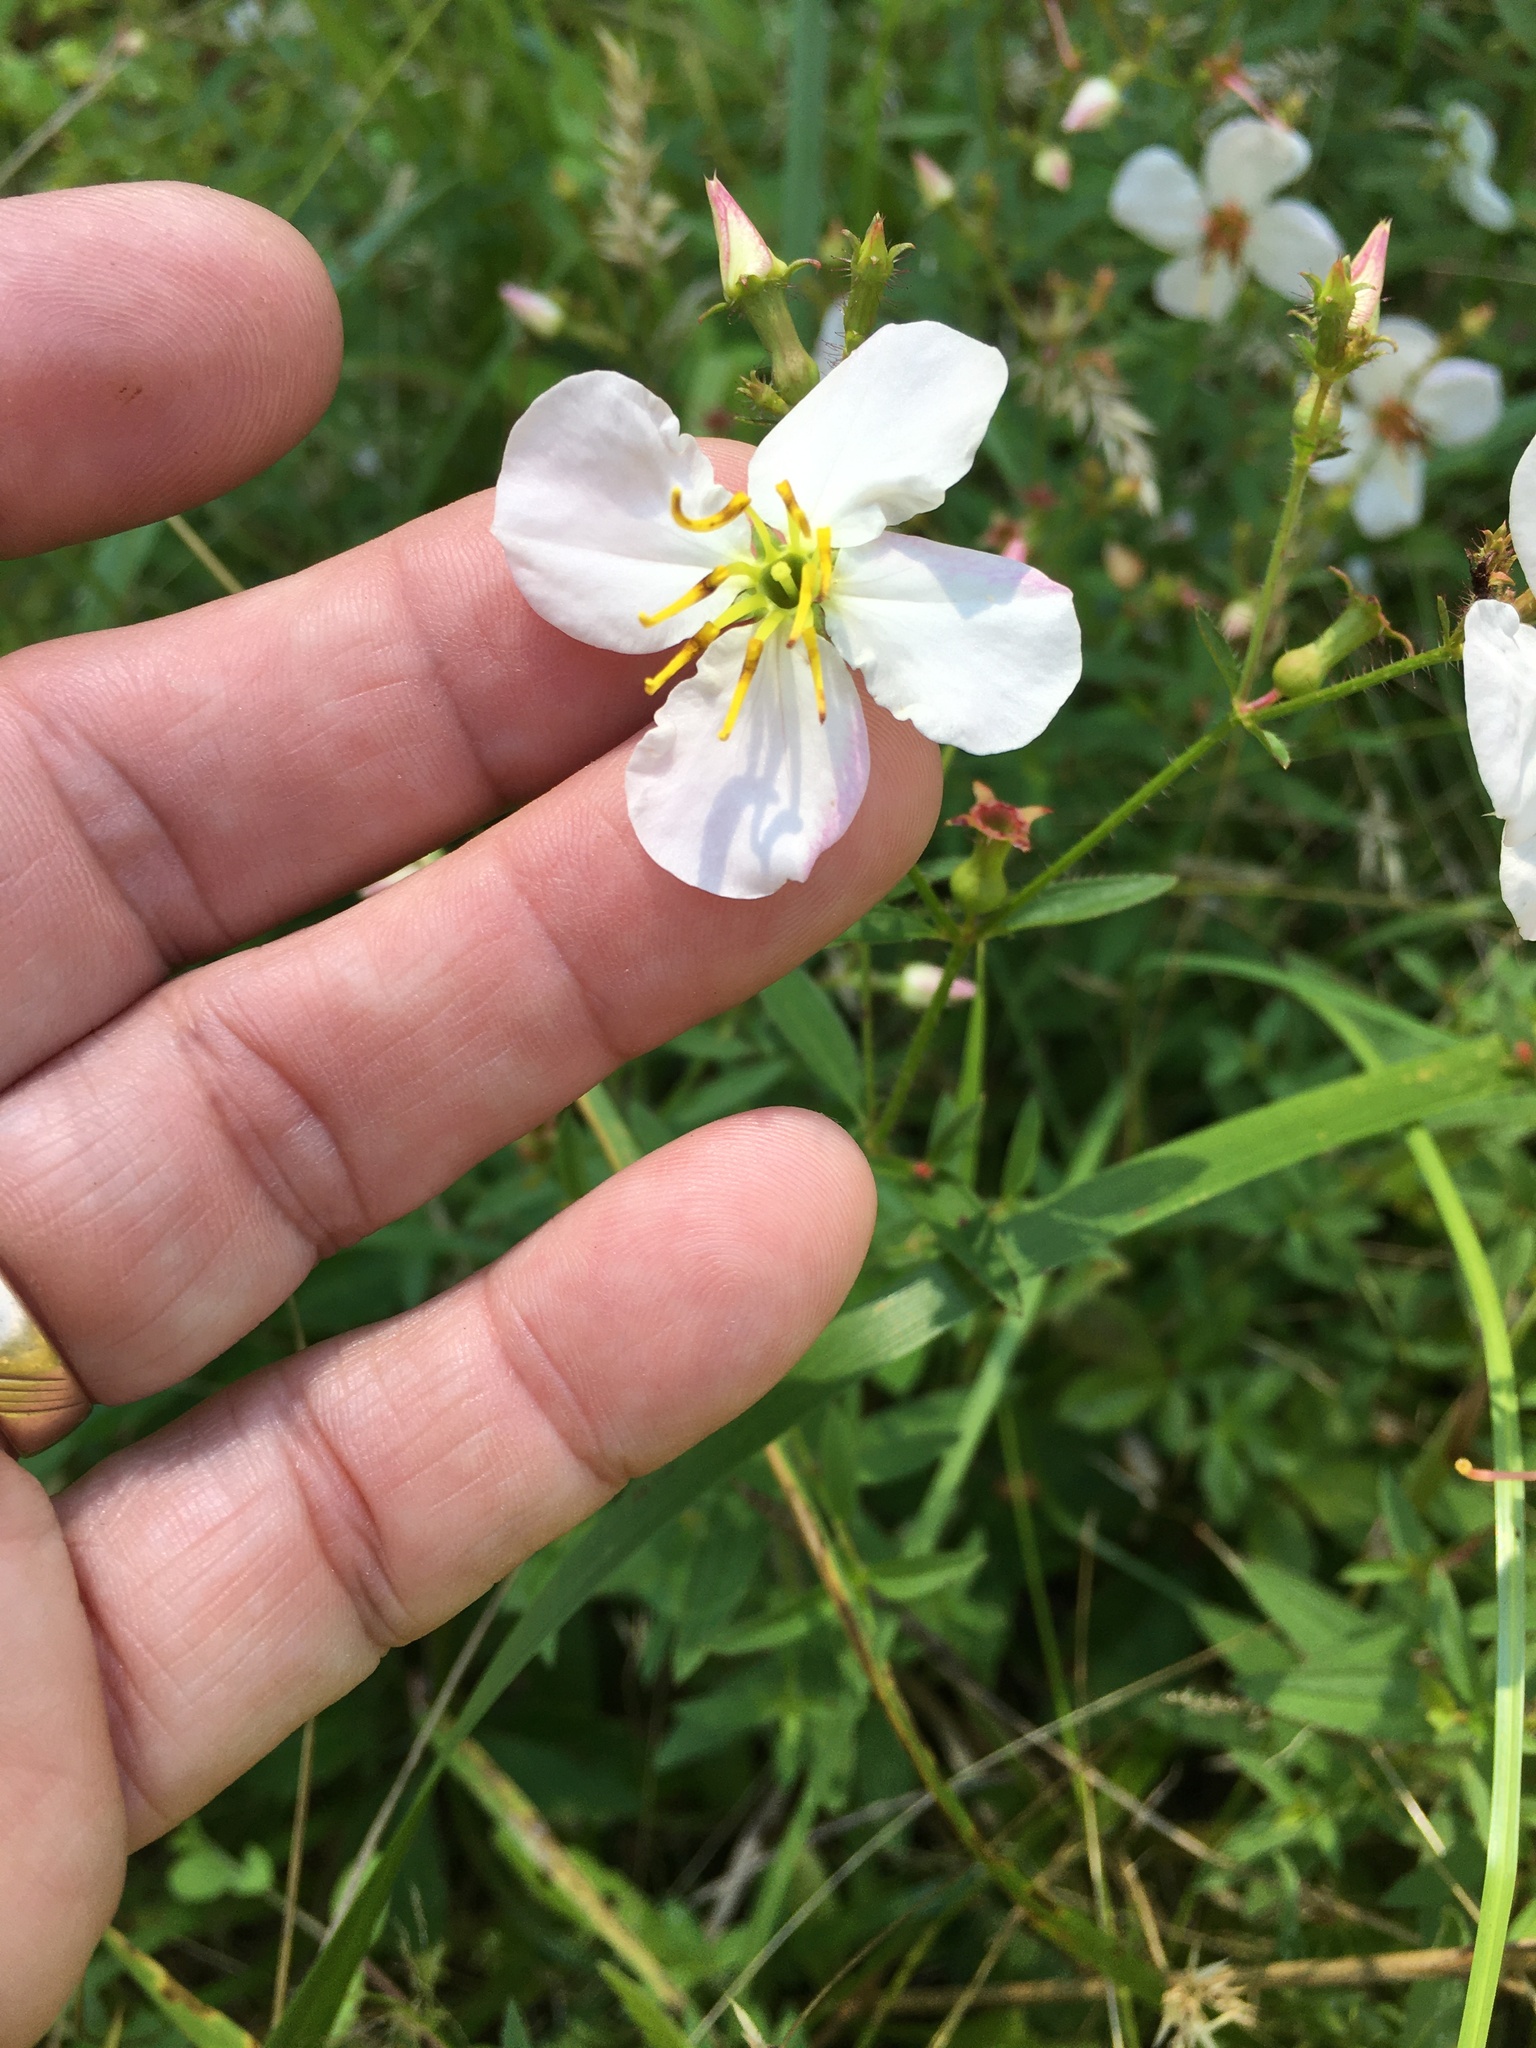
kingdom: Plantae
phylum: Tracheophyta
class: Magnoliopsida
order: Myrtales
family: Melastomataceae
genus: Rhexia
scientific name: Rhexia mariana
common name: Dull meadow-pitcher
